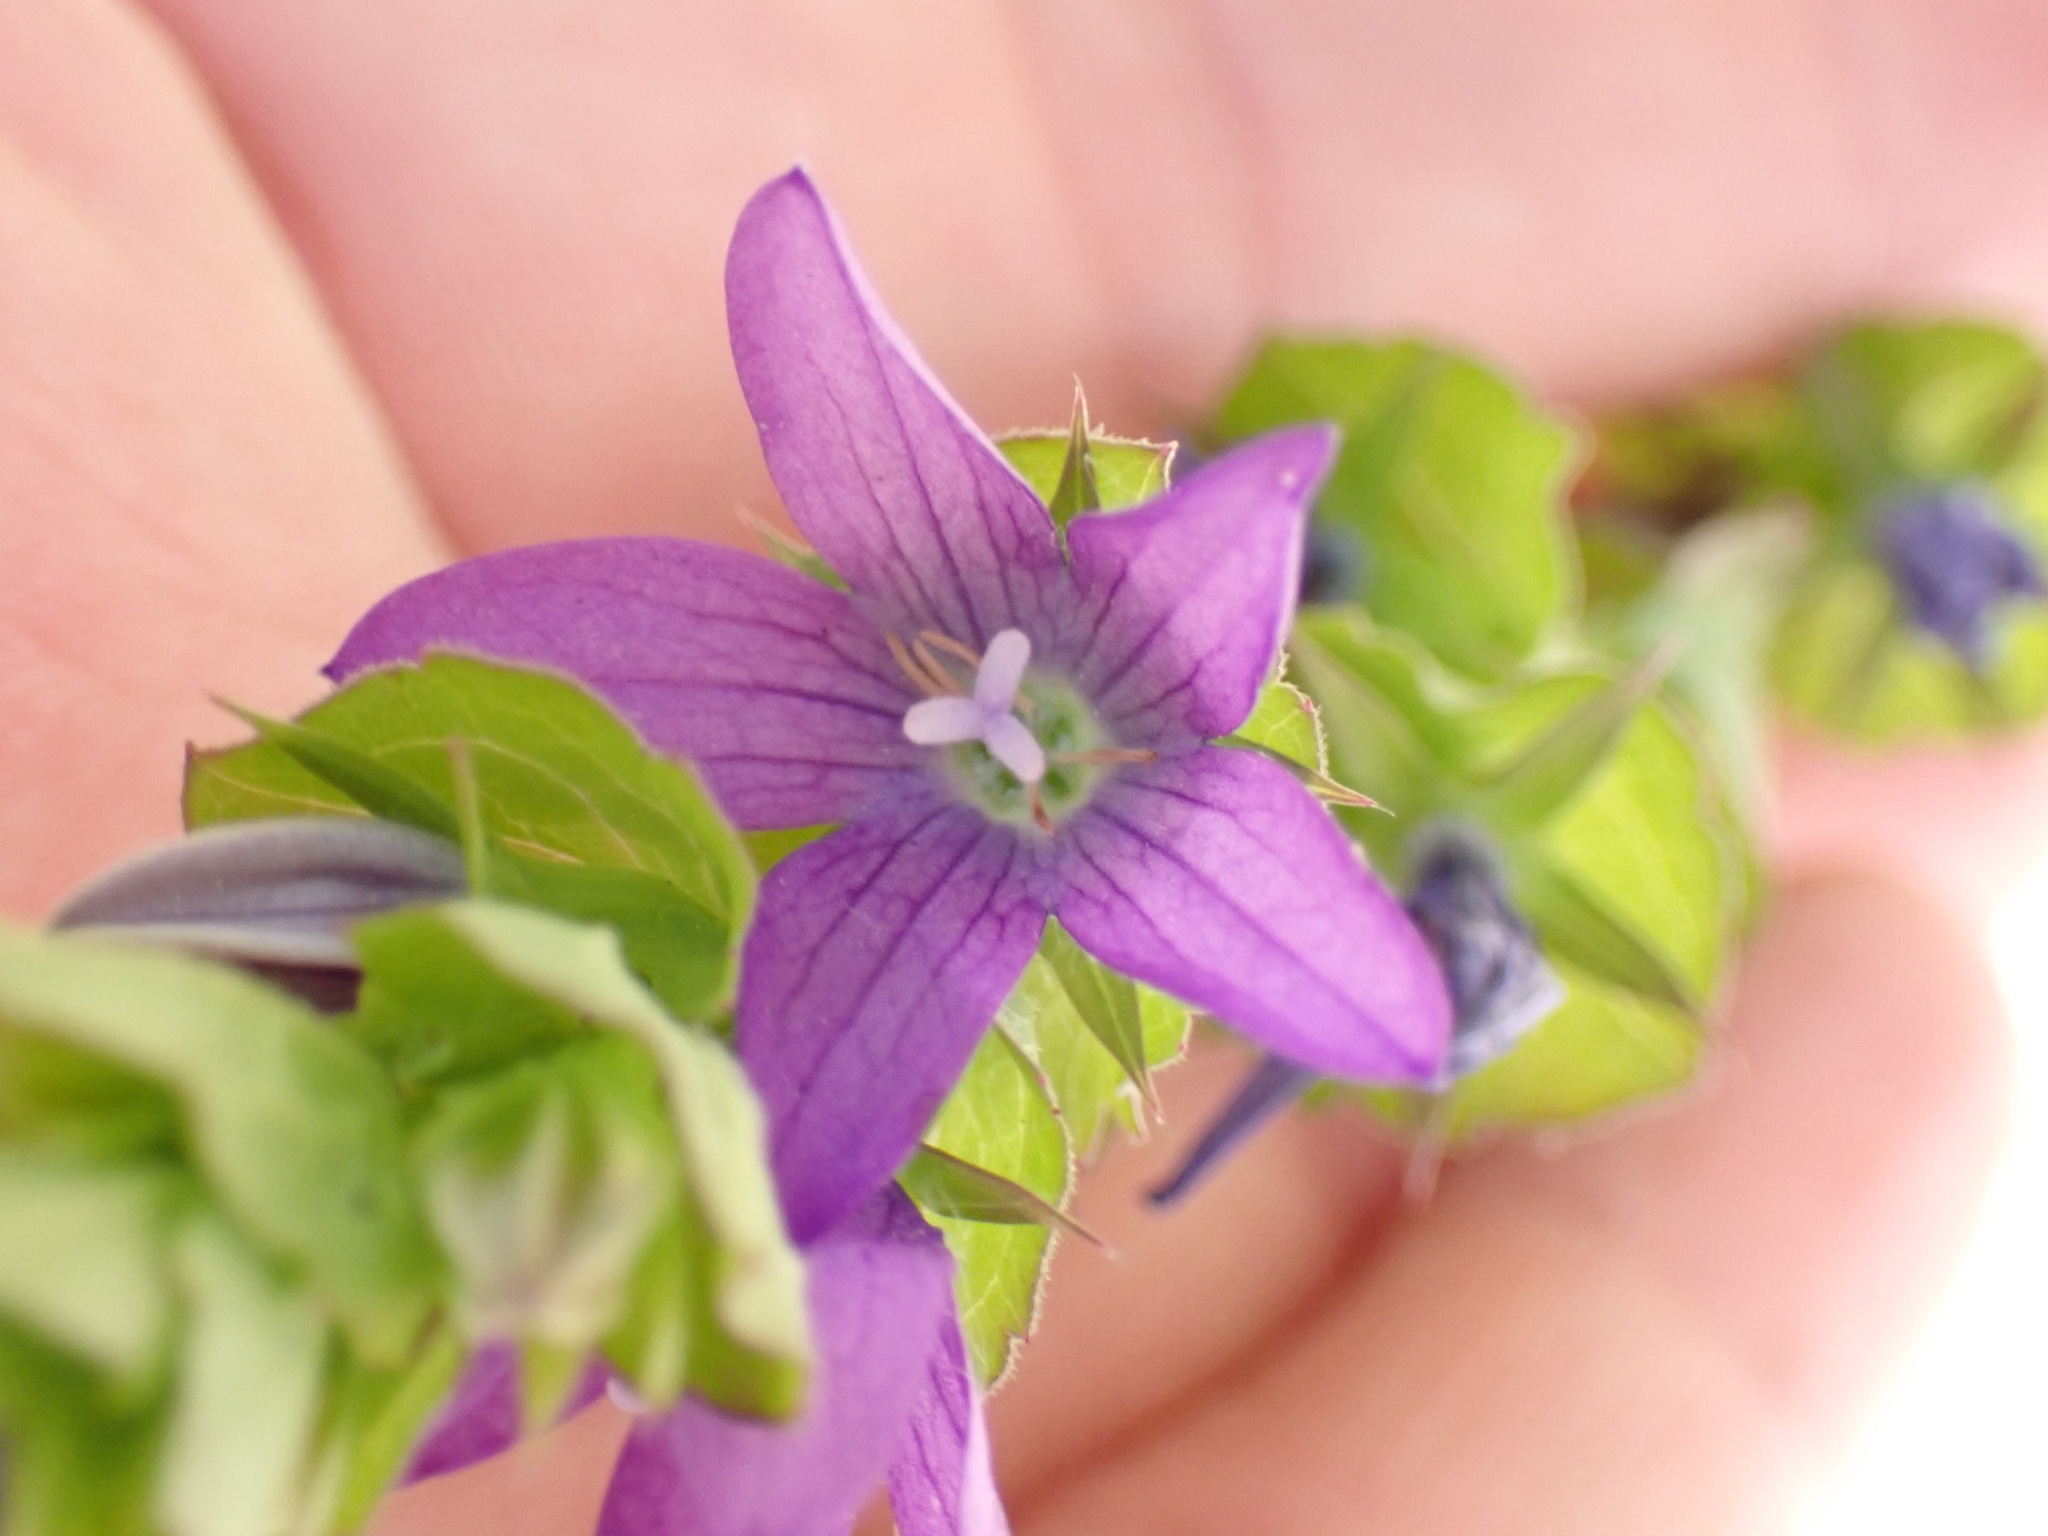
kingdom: Plantae
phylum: Tracheophyta
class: Magnoliopsida
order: Asterales
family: Campanulaceae
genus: Triodanis
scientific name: Triodanis perfoliata
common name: Clasping venus' looking-glass
